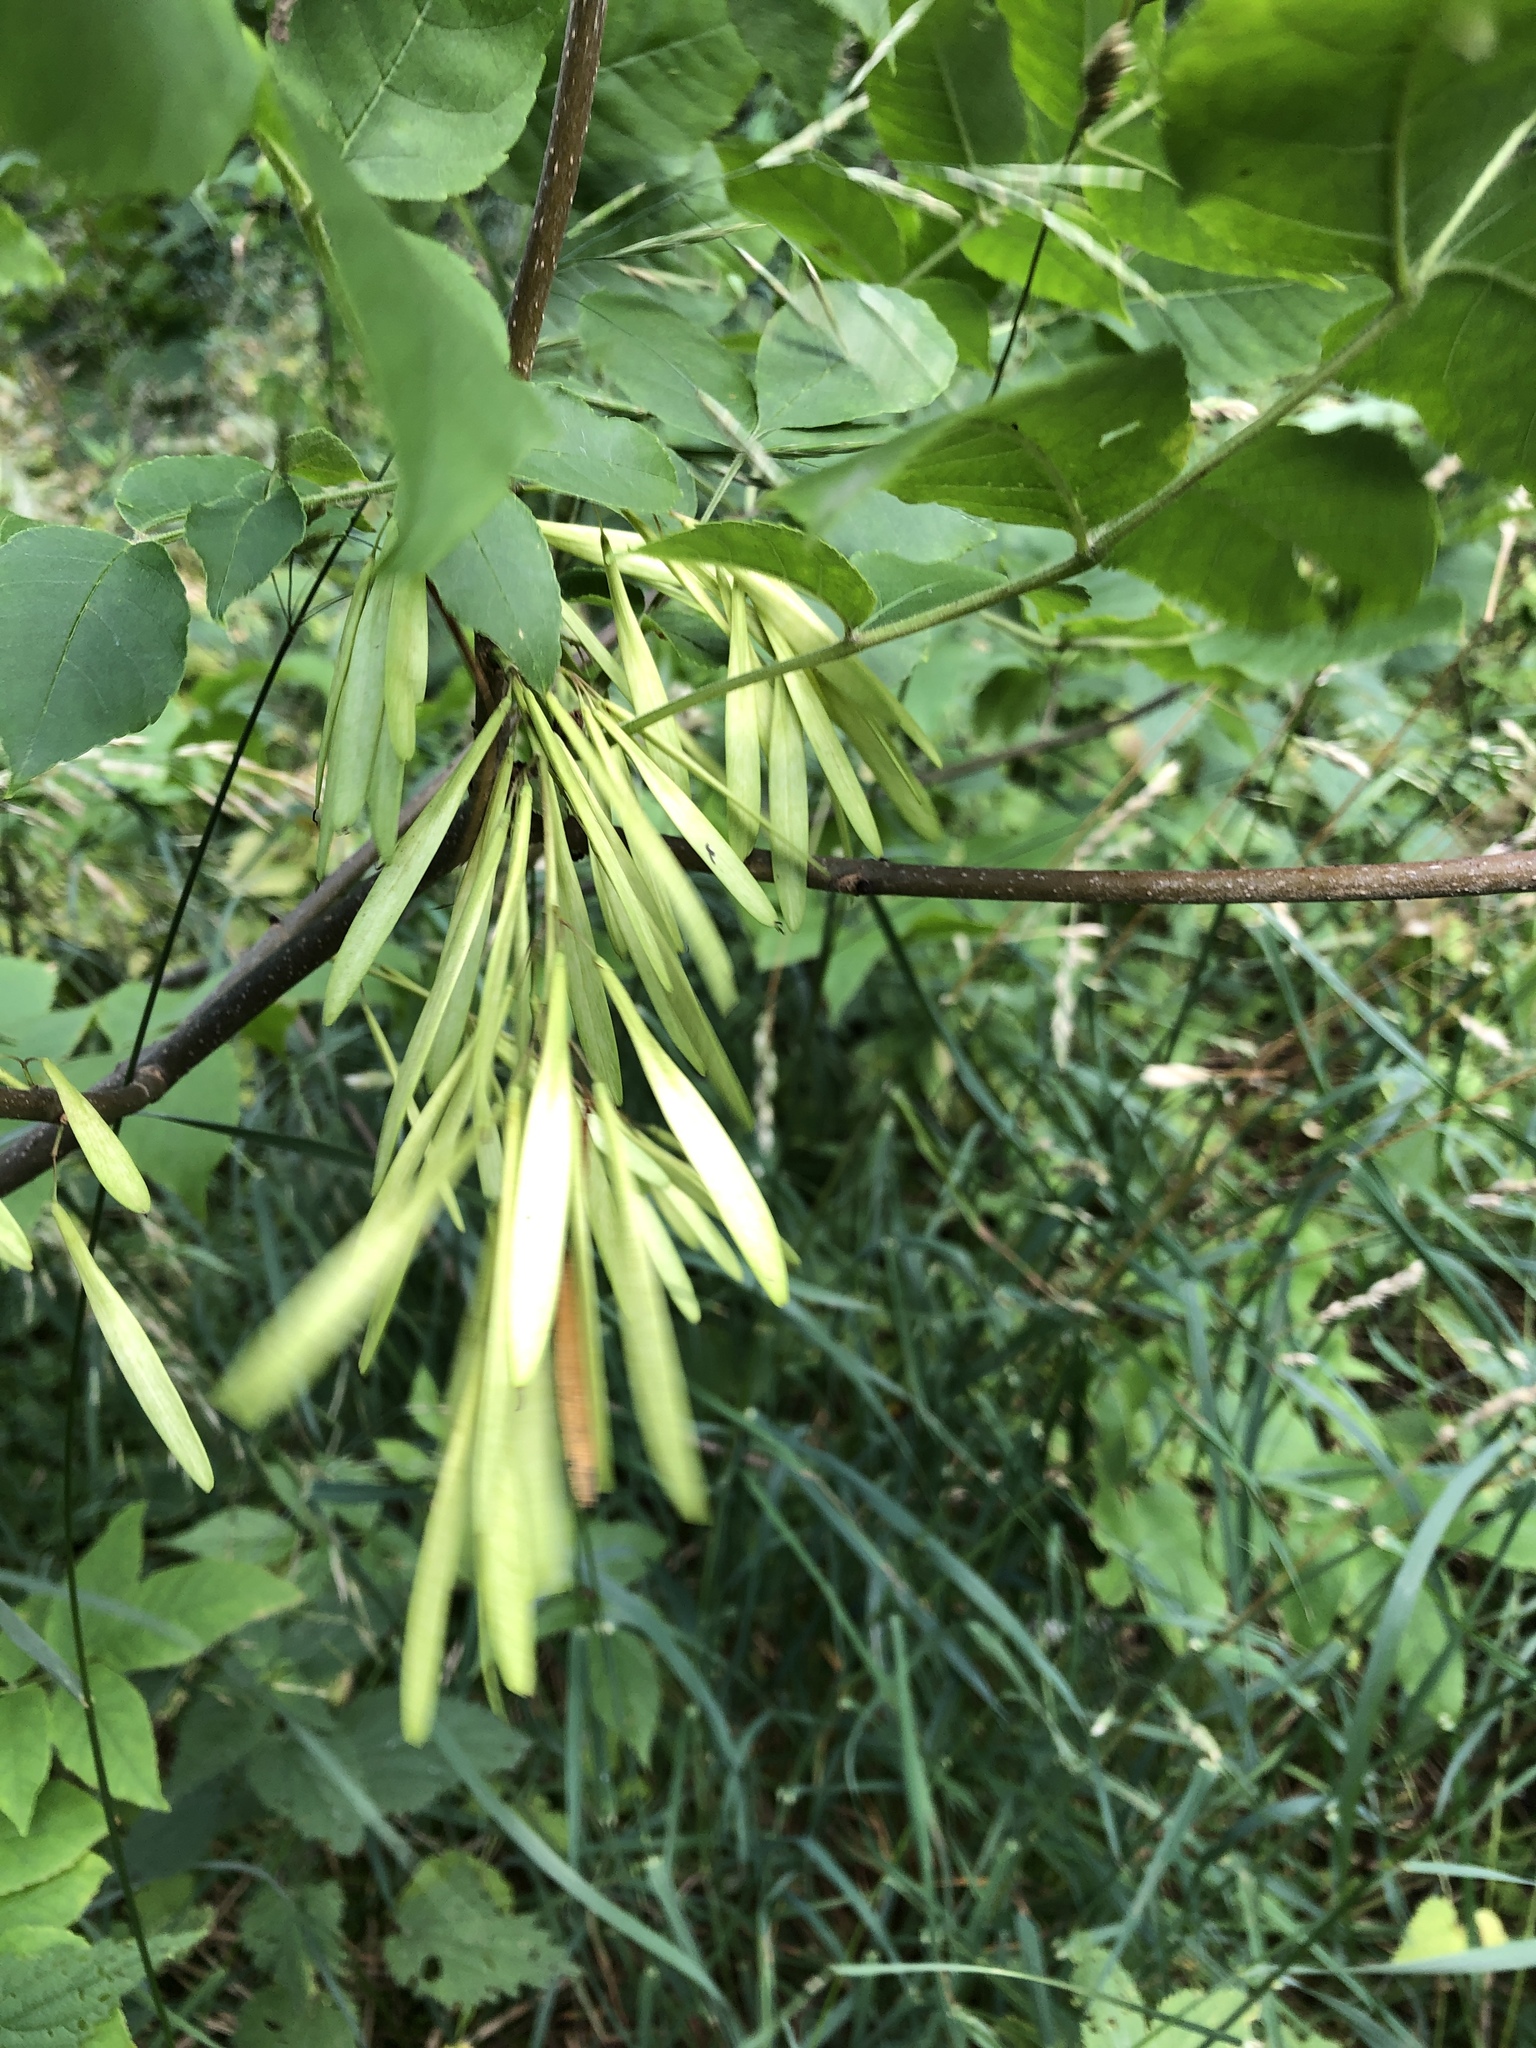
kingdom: Plantae
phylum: Tracheophyta
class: Magnoliopsida
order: Lamiales
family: Oleaceae
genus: Fraxinus
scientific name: Fraxinus pennsylvanica
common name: Green ash
